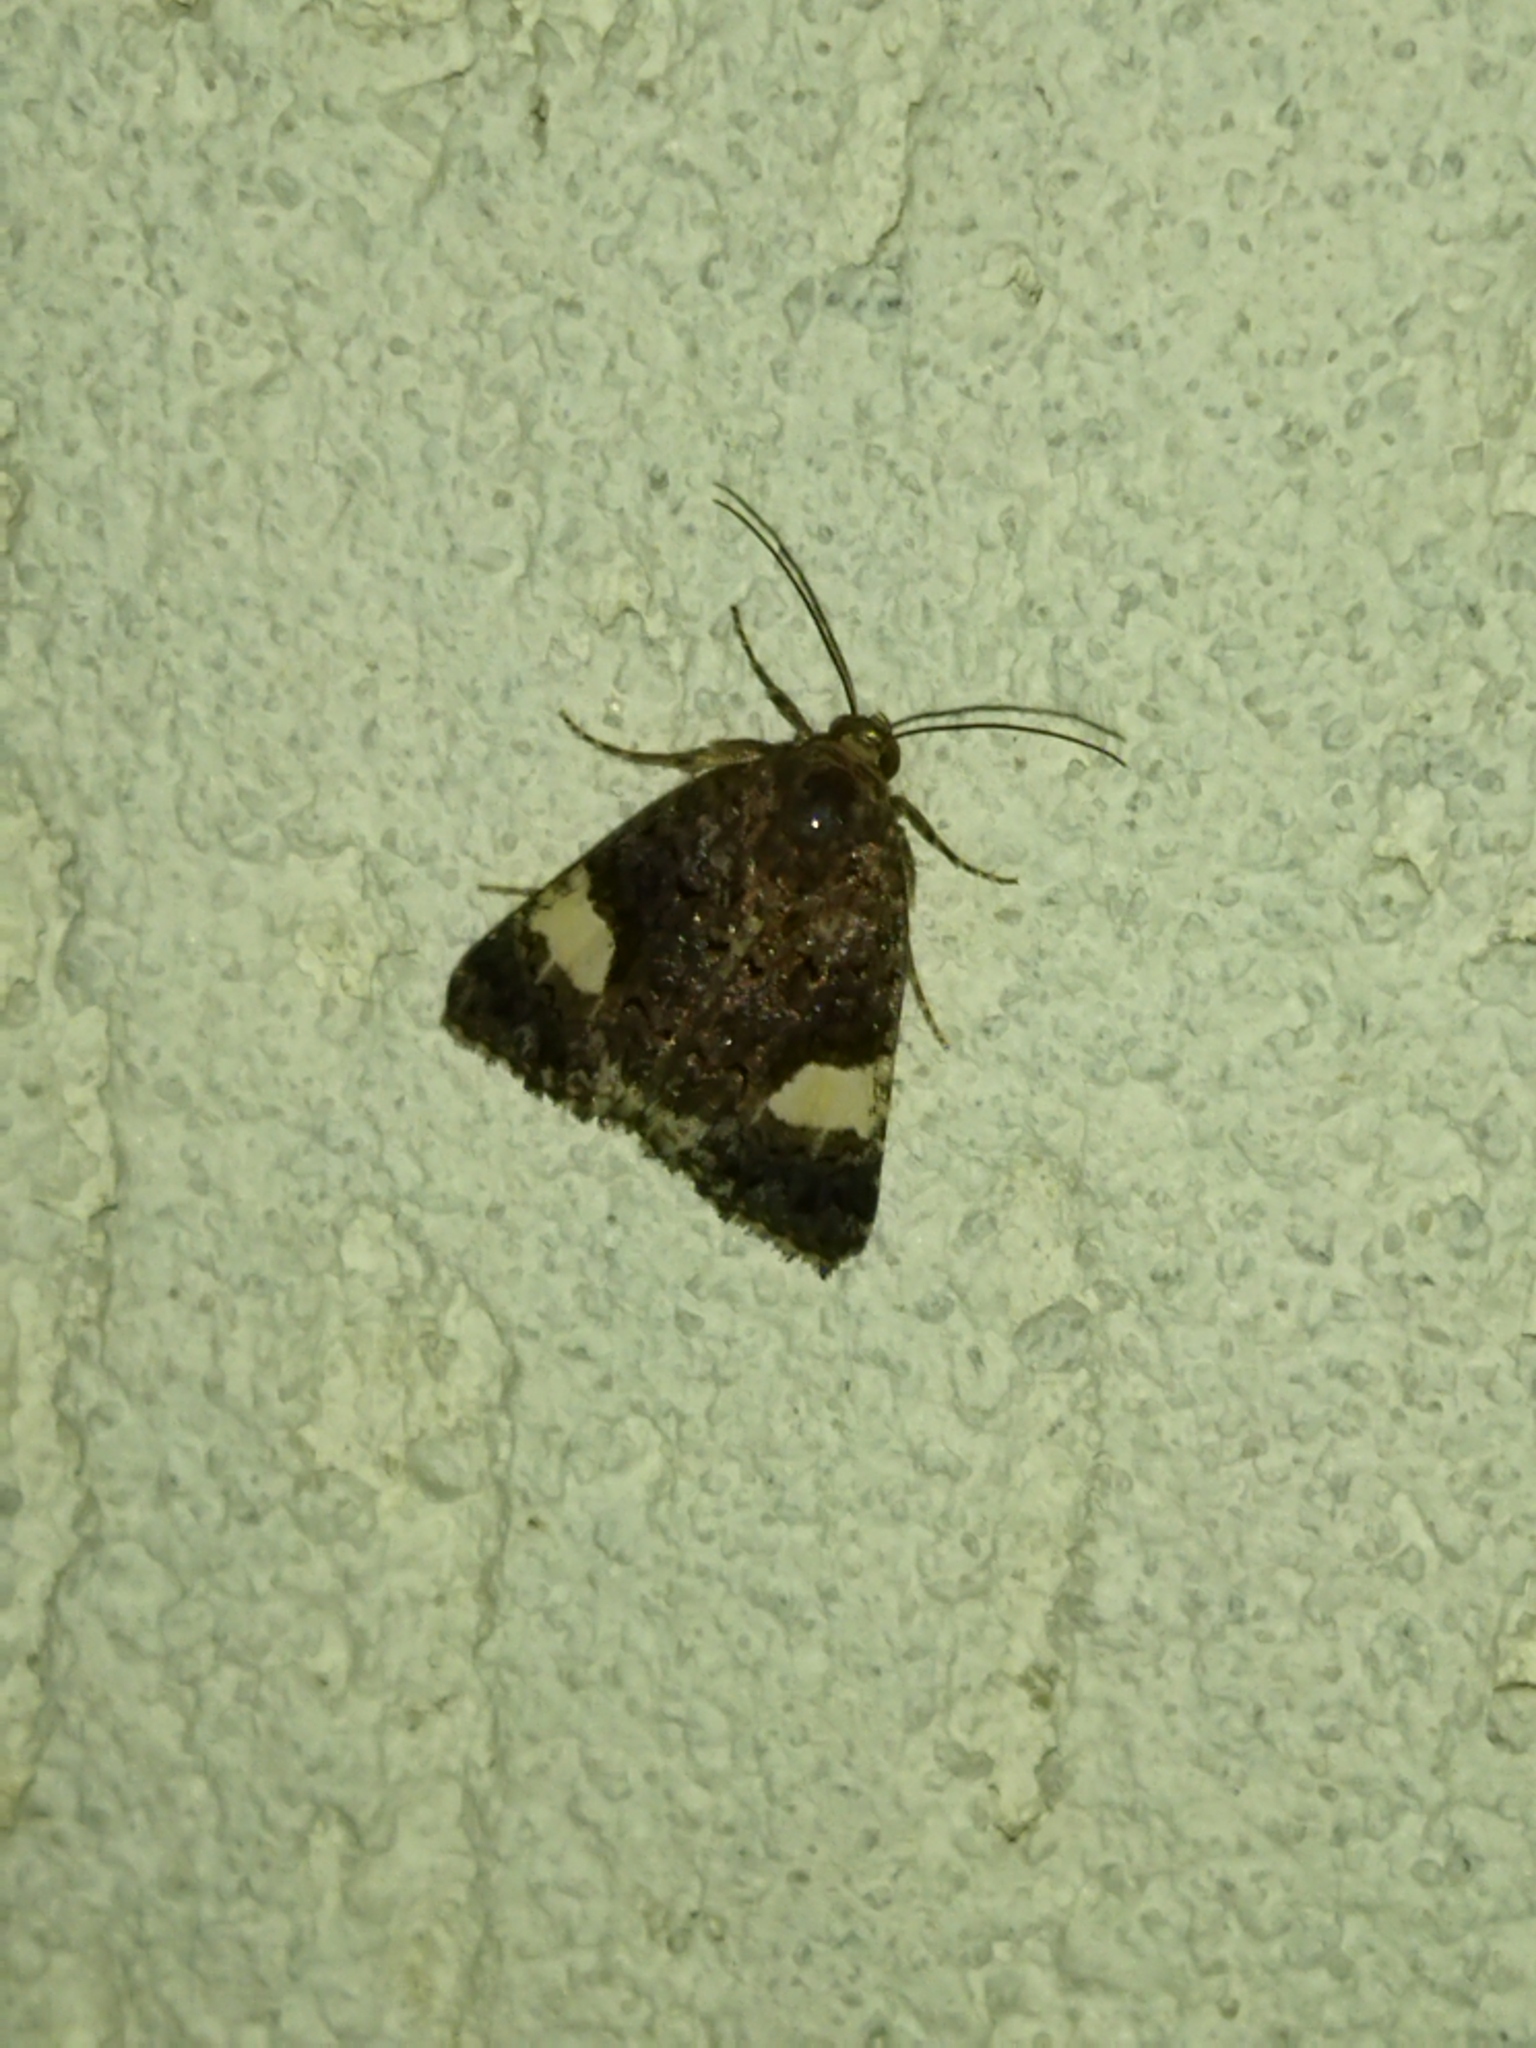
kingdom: Animalia
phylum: Arthropoda
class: Insecta
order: Lepidoptera
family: Erebidae
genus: Tyta
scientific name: Tyta luctuosa
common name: Four-spotted
